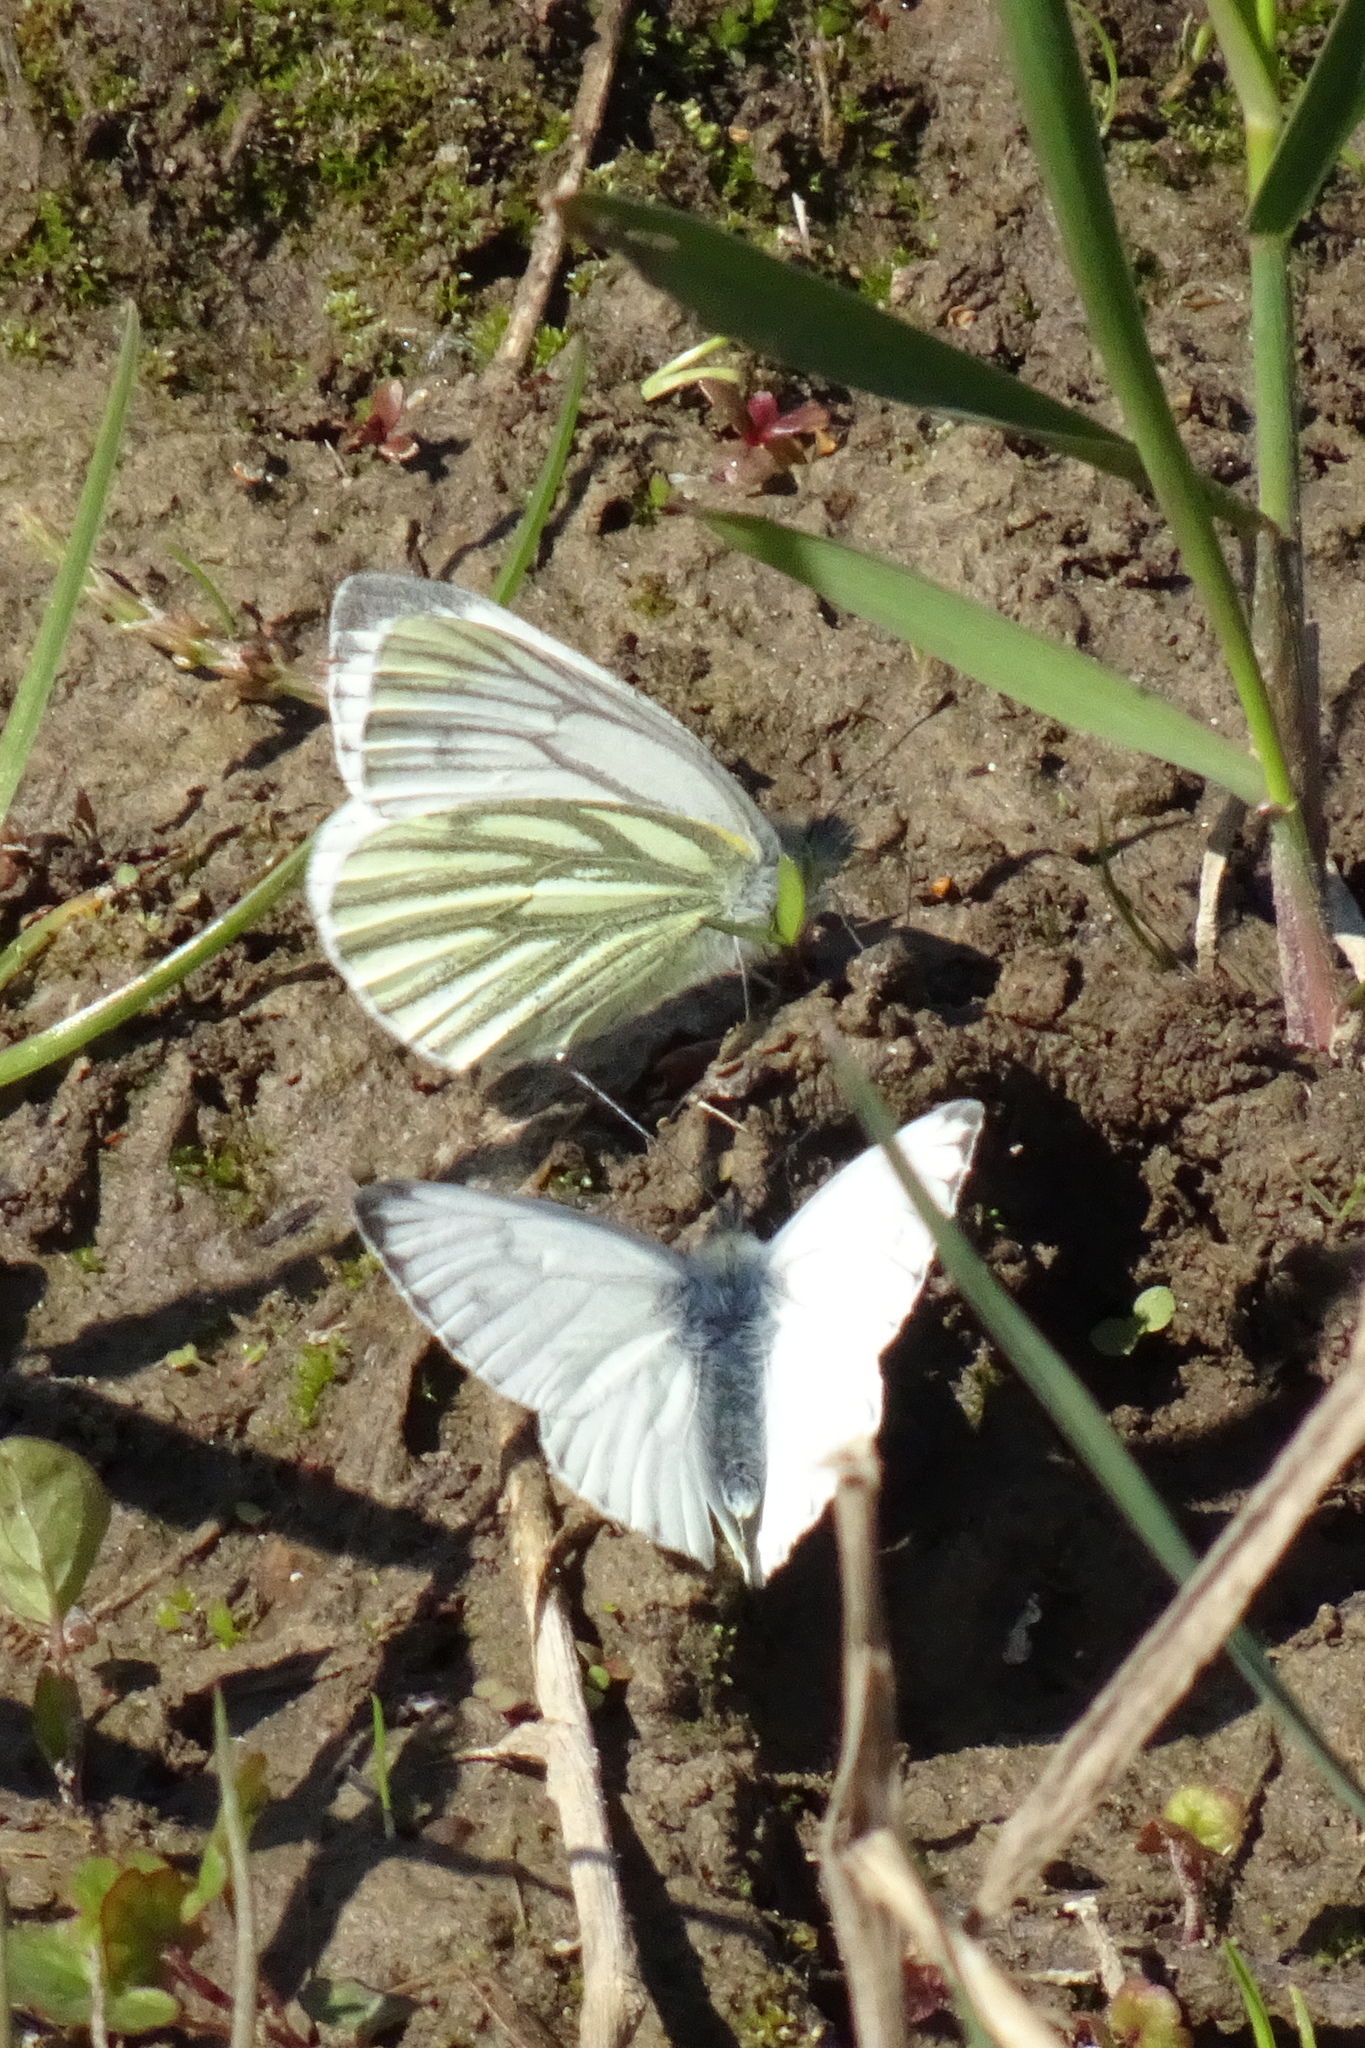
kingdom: Animalia
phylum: Arthropoda
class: Insecta
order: Lepidoptera
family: Pieridae
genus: Pieris
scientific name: Pieris napi
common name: Green-veined white
